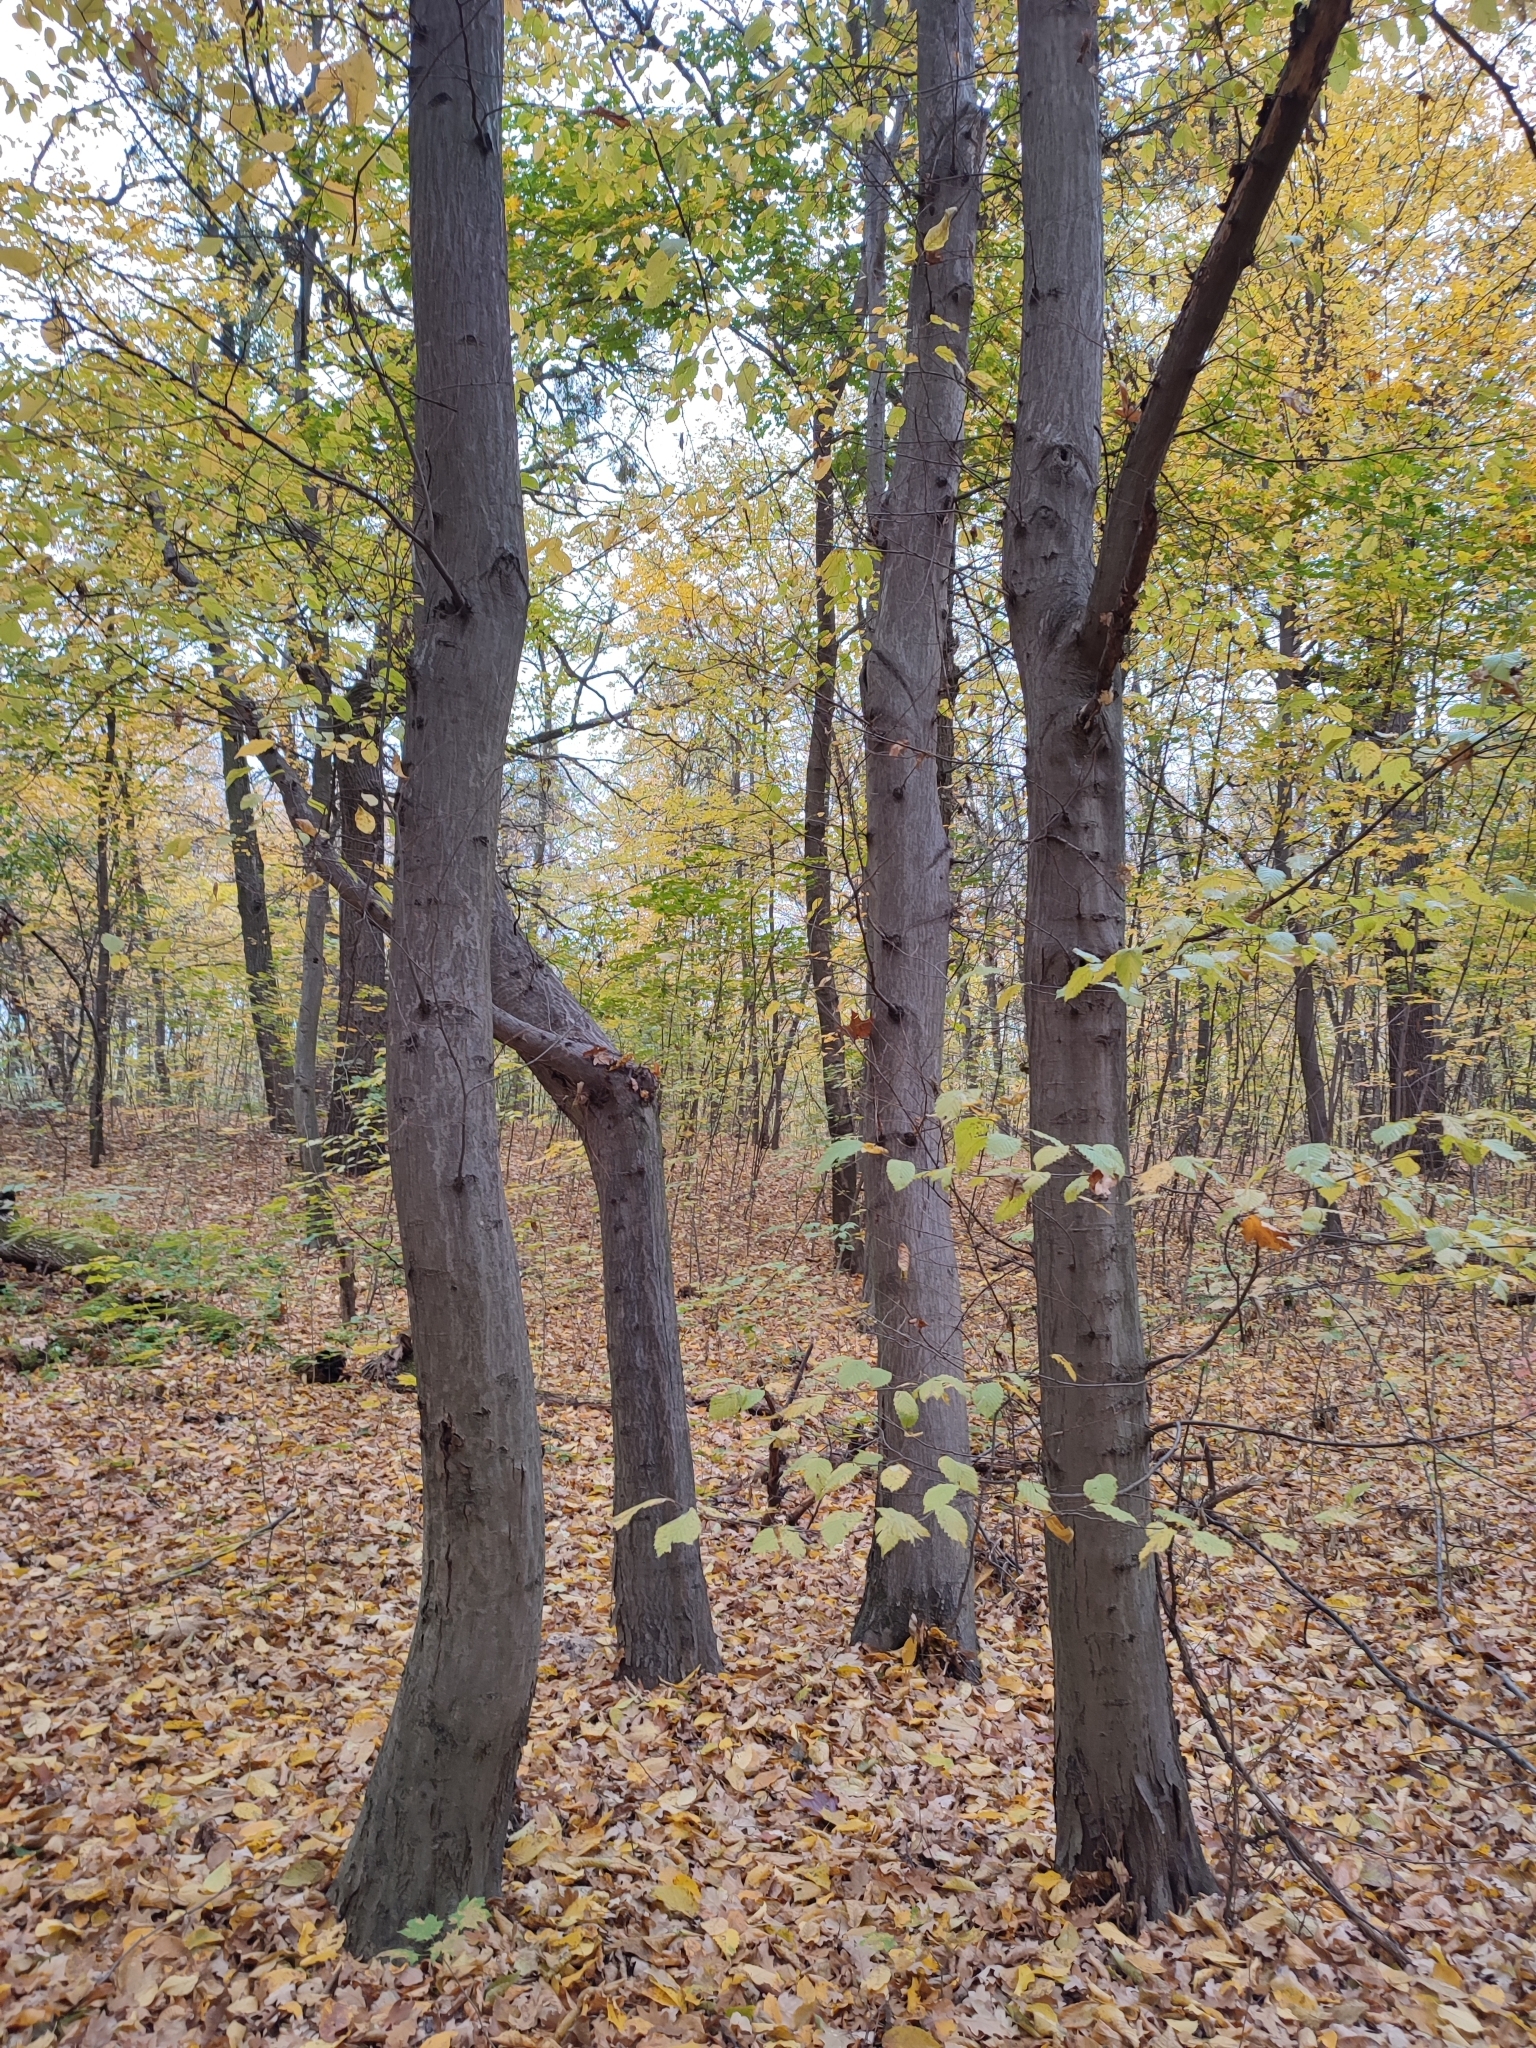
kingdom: Plantae
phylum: Tracheophyta
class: Magnoliopsida
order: Fagales
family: Betulaceae
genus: Carpinus
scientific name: Carpinus betulus
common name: Hornbeam
